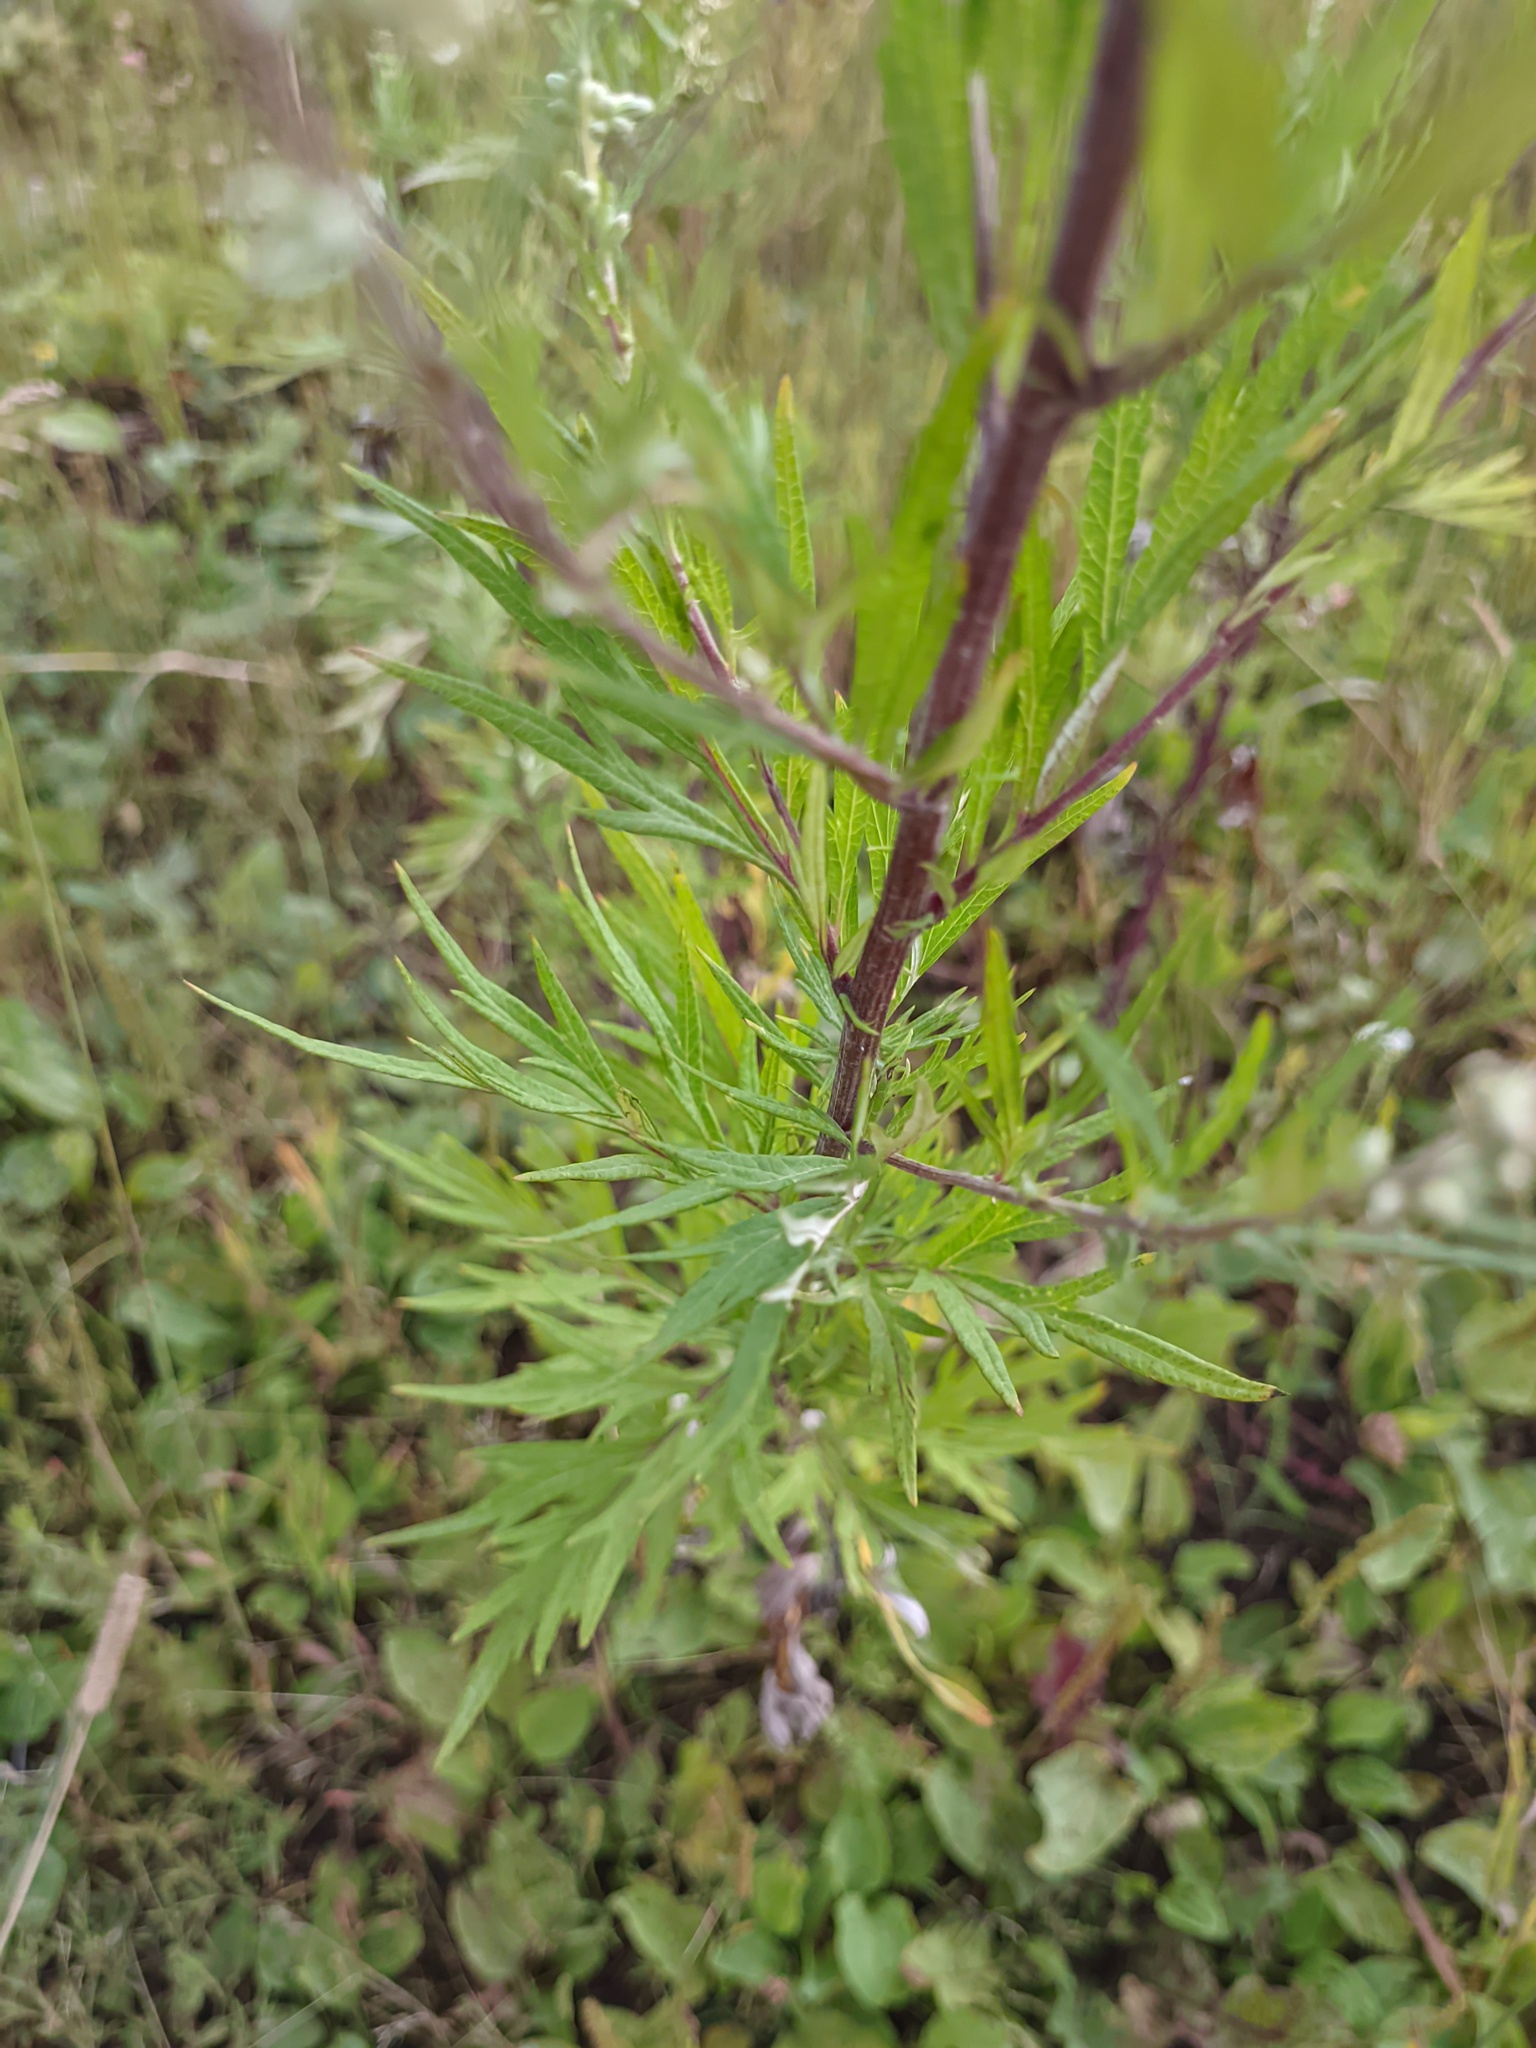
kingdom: Plantae
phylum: Tracheophyta
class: Magnoliopsida
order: Asterales
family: Asteraceae
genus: Artemisia
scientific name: Artemisia vulgaris
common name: Mugwort
